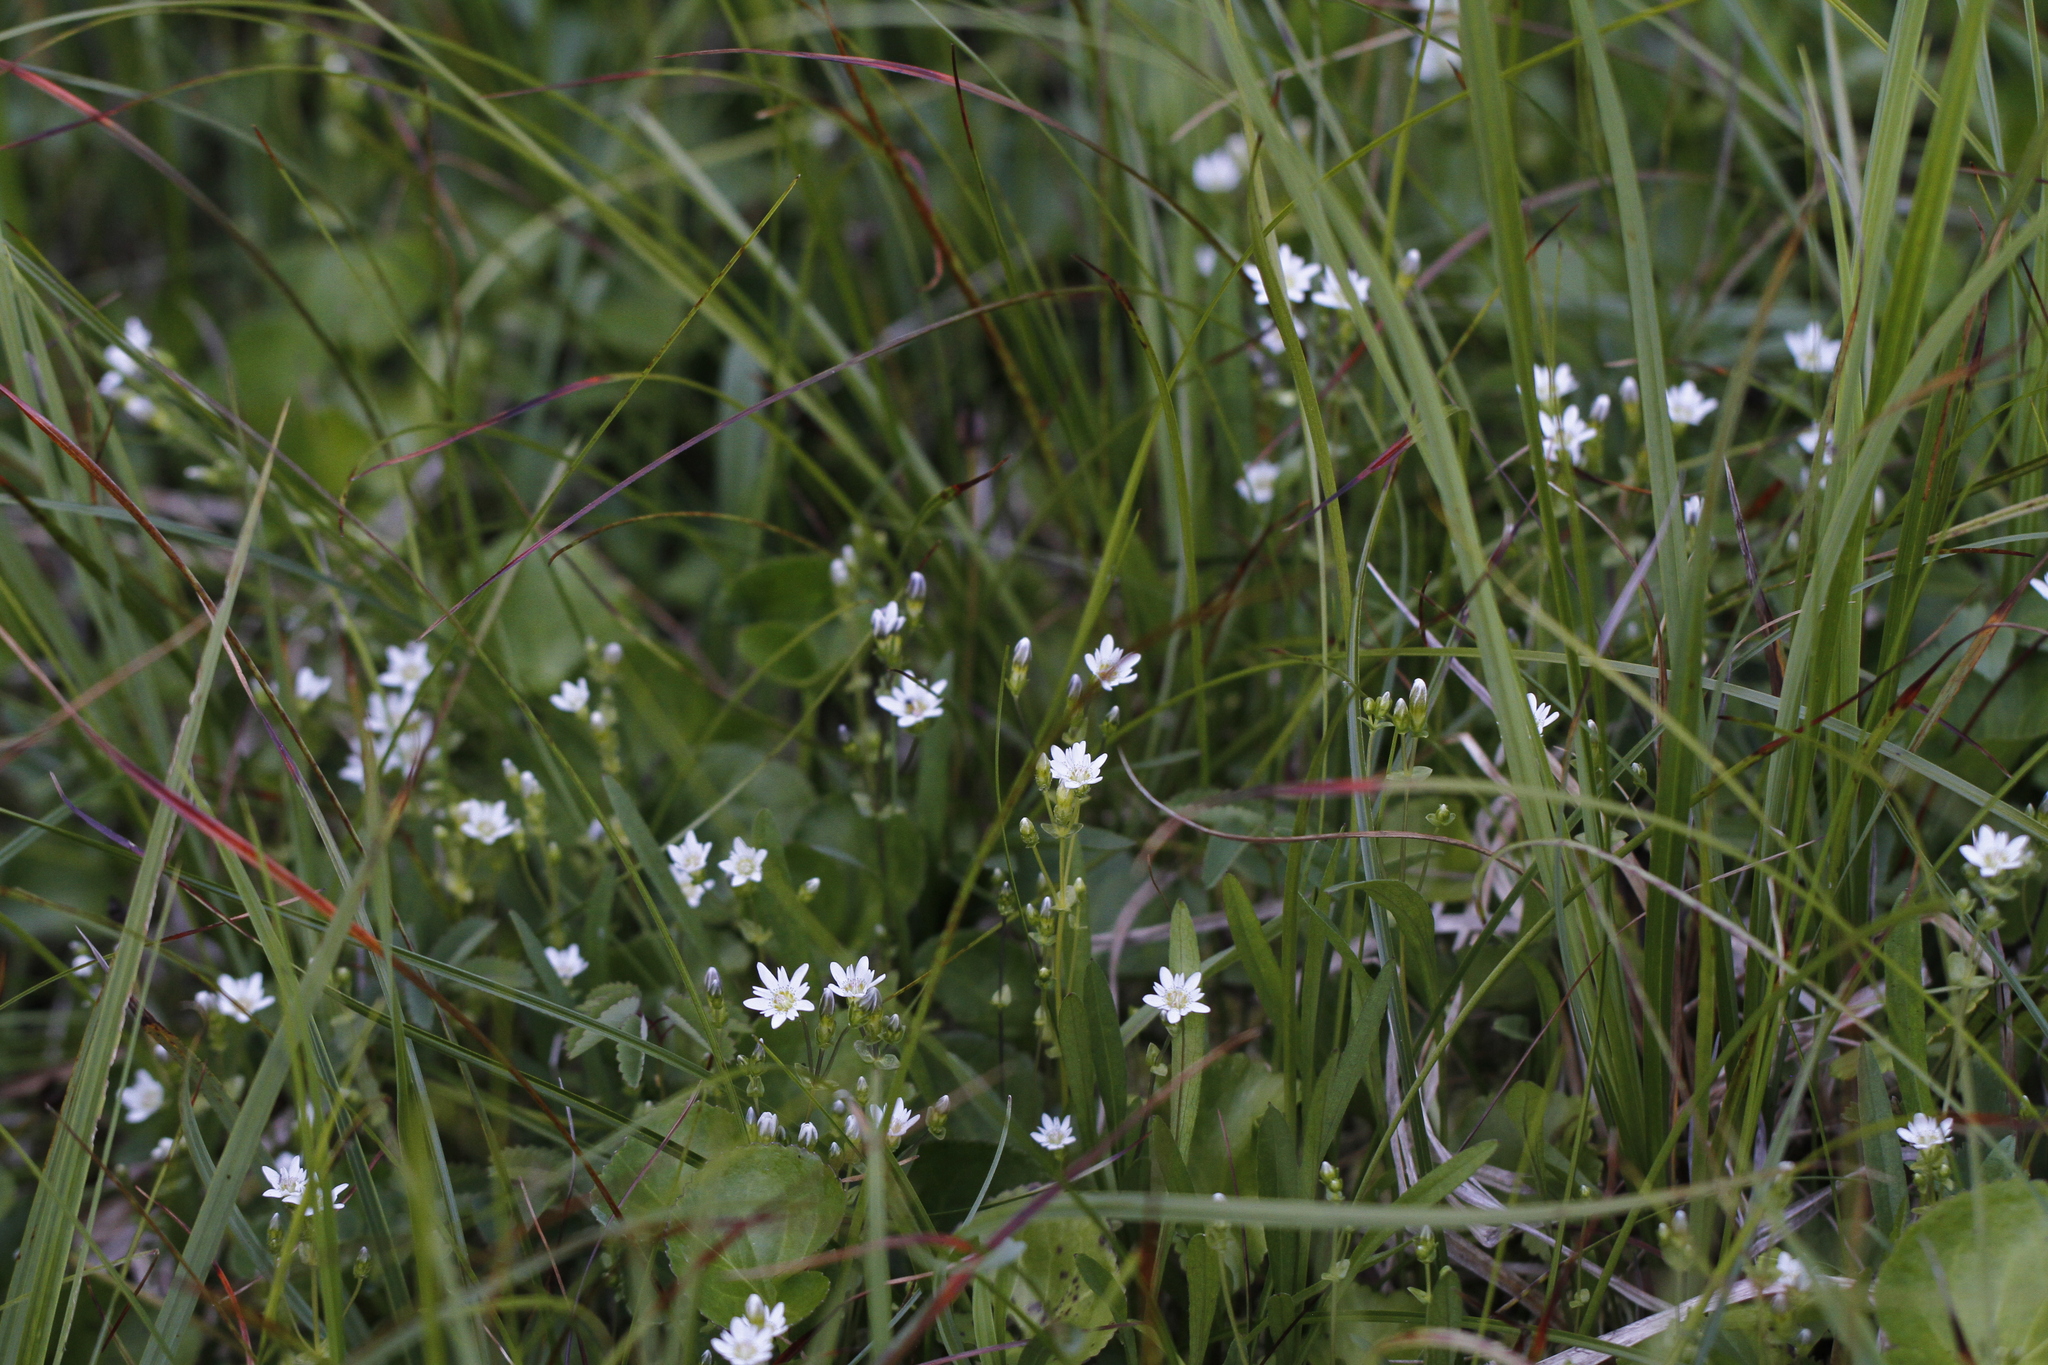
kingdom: Plantae
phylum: Tracheophyta
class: Magnoliopsida
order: Gentianales
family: Gentianaceae
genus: Gentiana
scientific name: Gentiana douglasiana
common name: Swamp gentian
